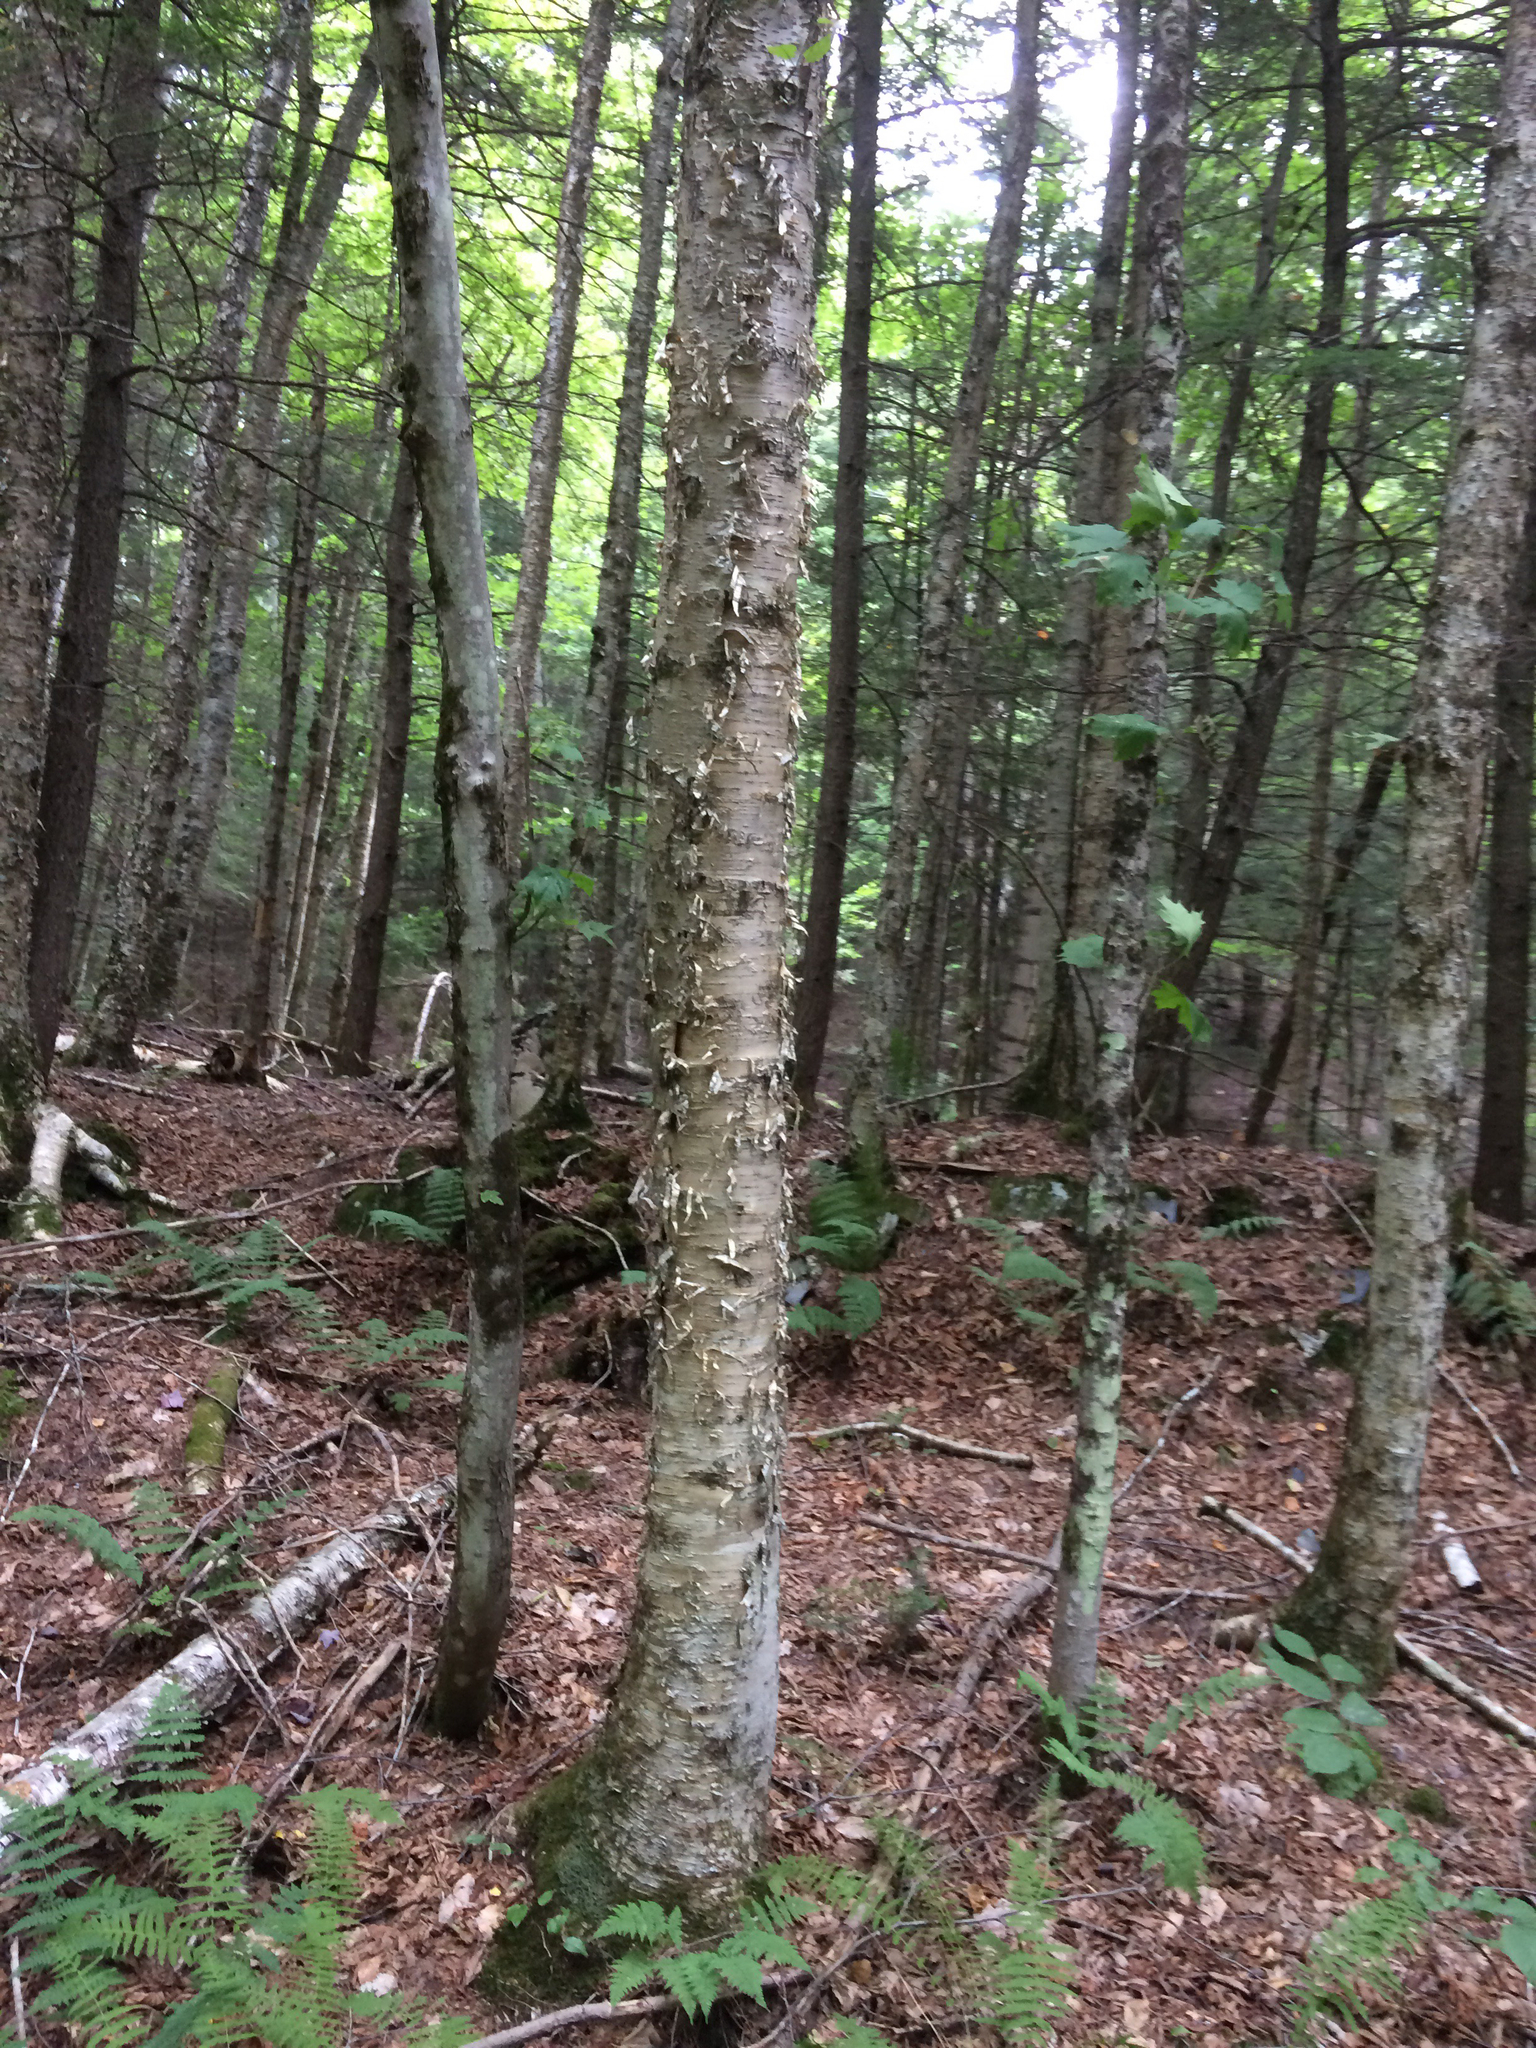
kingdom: Plantae
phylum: Tracheophyta
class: Magnoliopsida
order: Fagales
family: Betulaceae
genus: Betula
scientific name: Betula alleghaniensis
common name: Yellow birch
